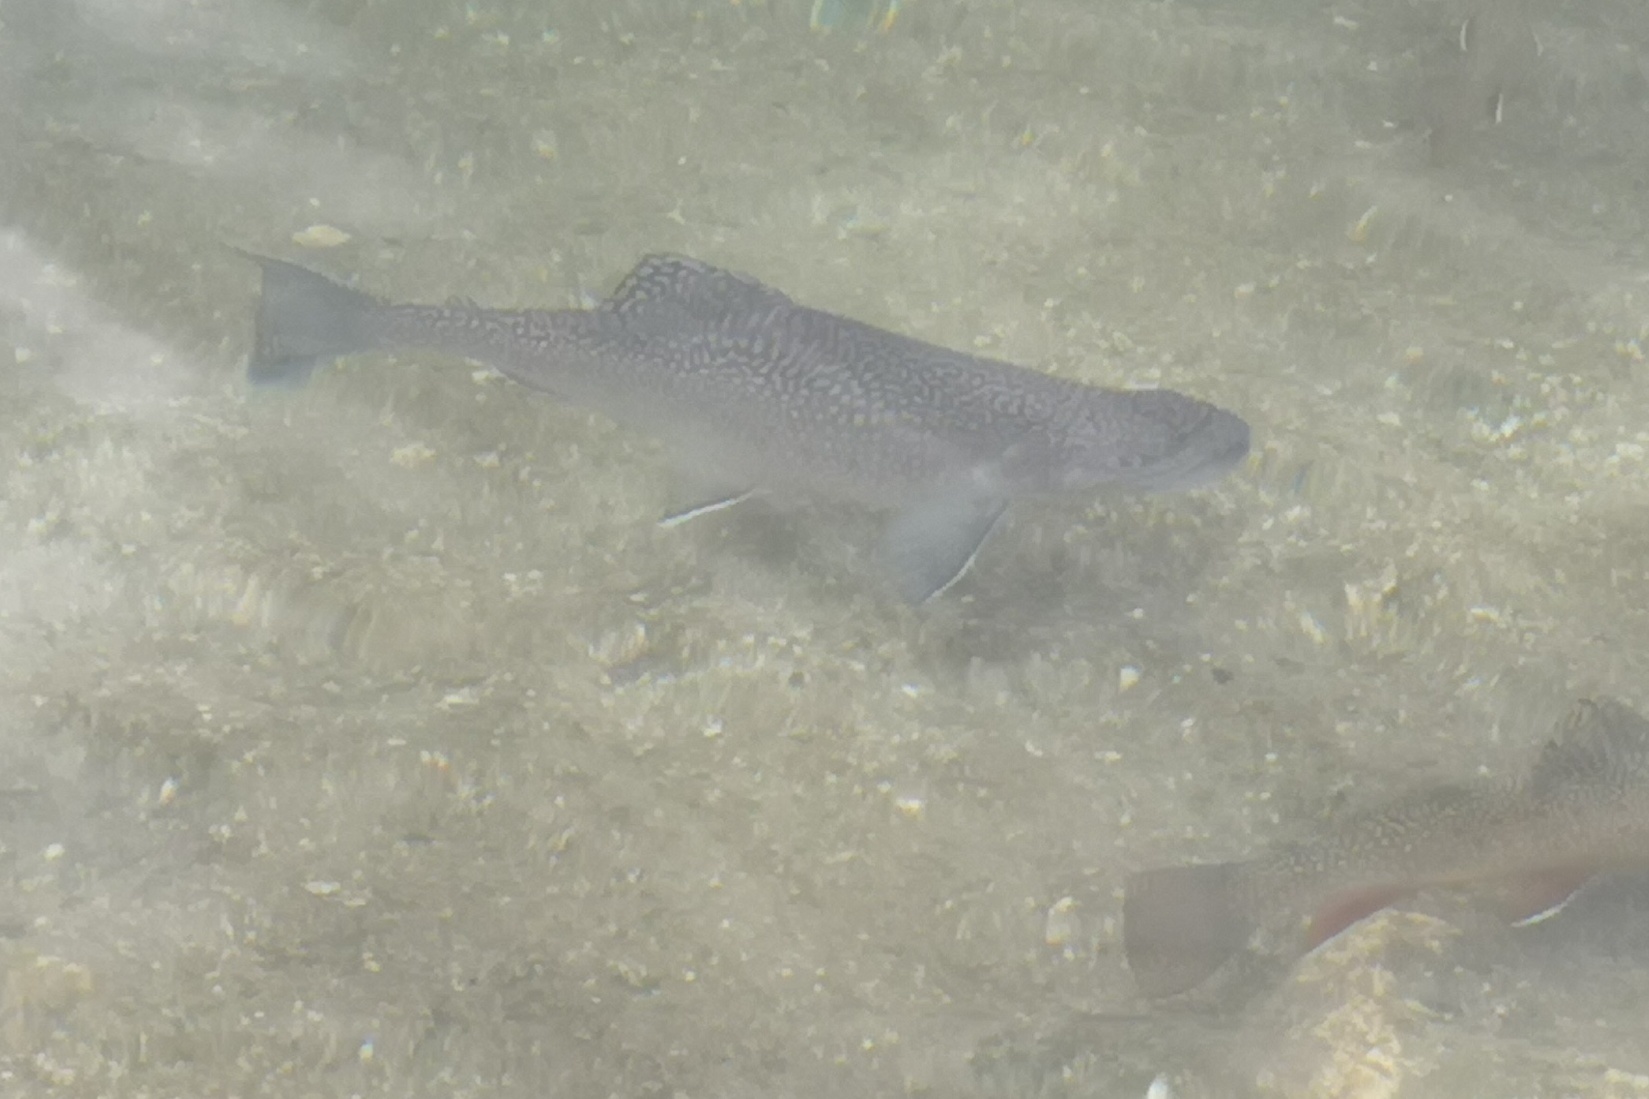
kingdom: Animalia
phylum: Chordata
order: Salmoniformes
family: Salmonidae
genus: Salvelinus
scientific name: Salvelinus fontinalis
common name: Brook trout
